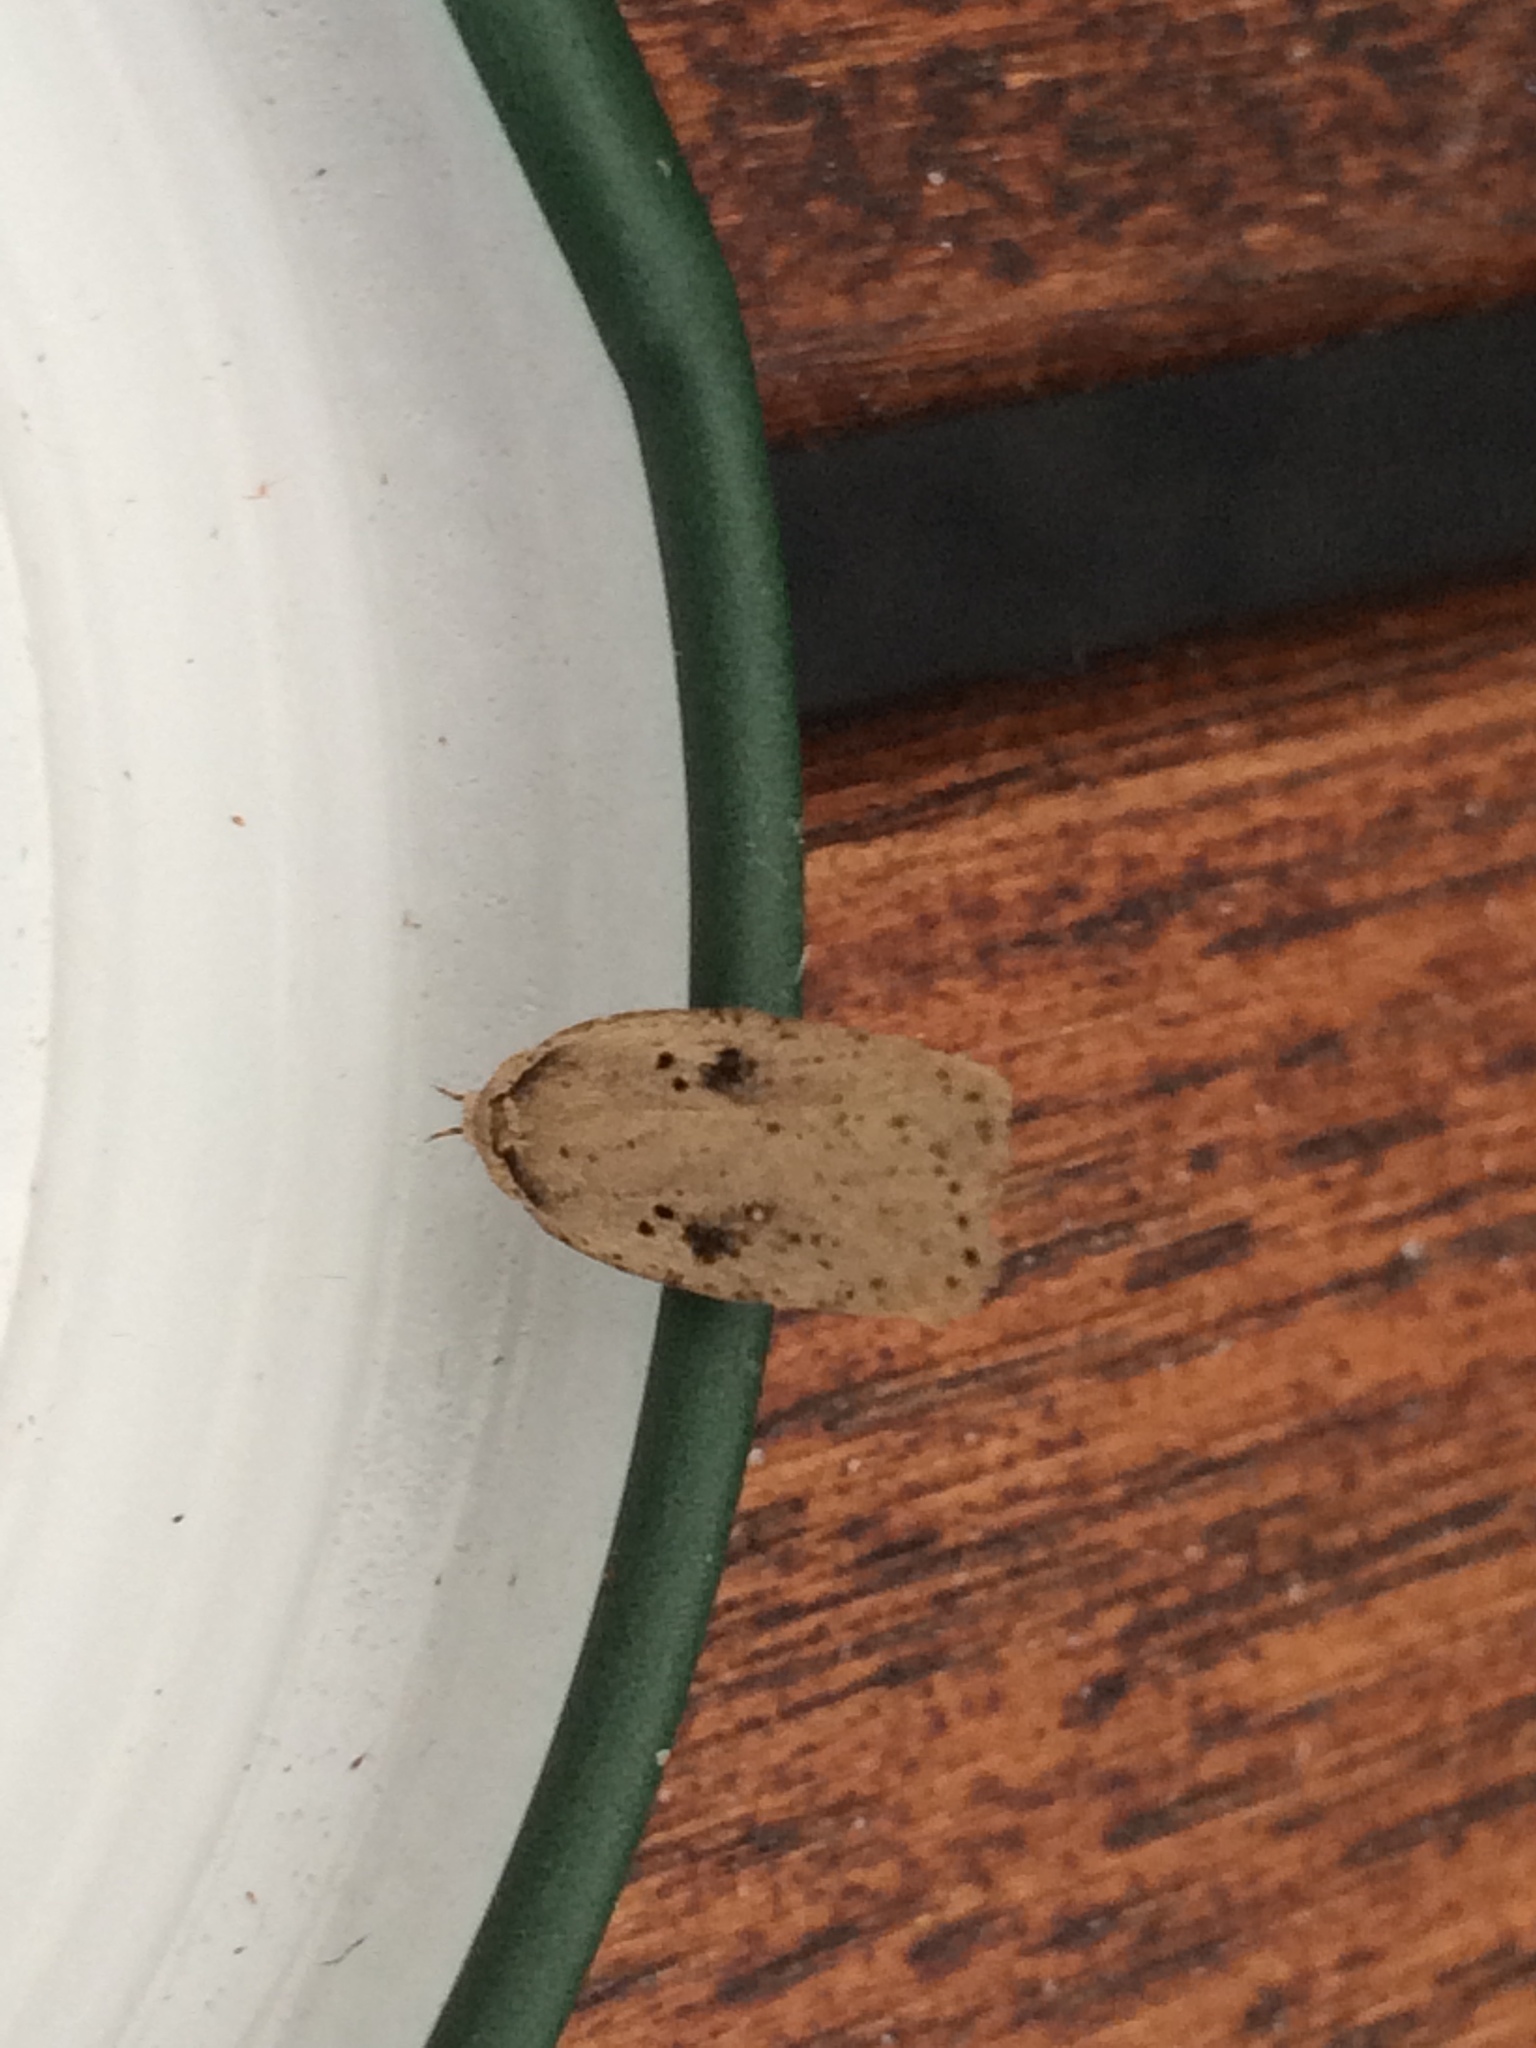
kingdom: Animalia
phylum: Arthropoda
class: Insecta
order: Lepidoptera
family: Depressariidae
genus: Agonopterix
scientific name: Agonopterix yeatiana
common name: Coastal flat-body
